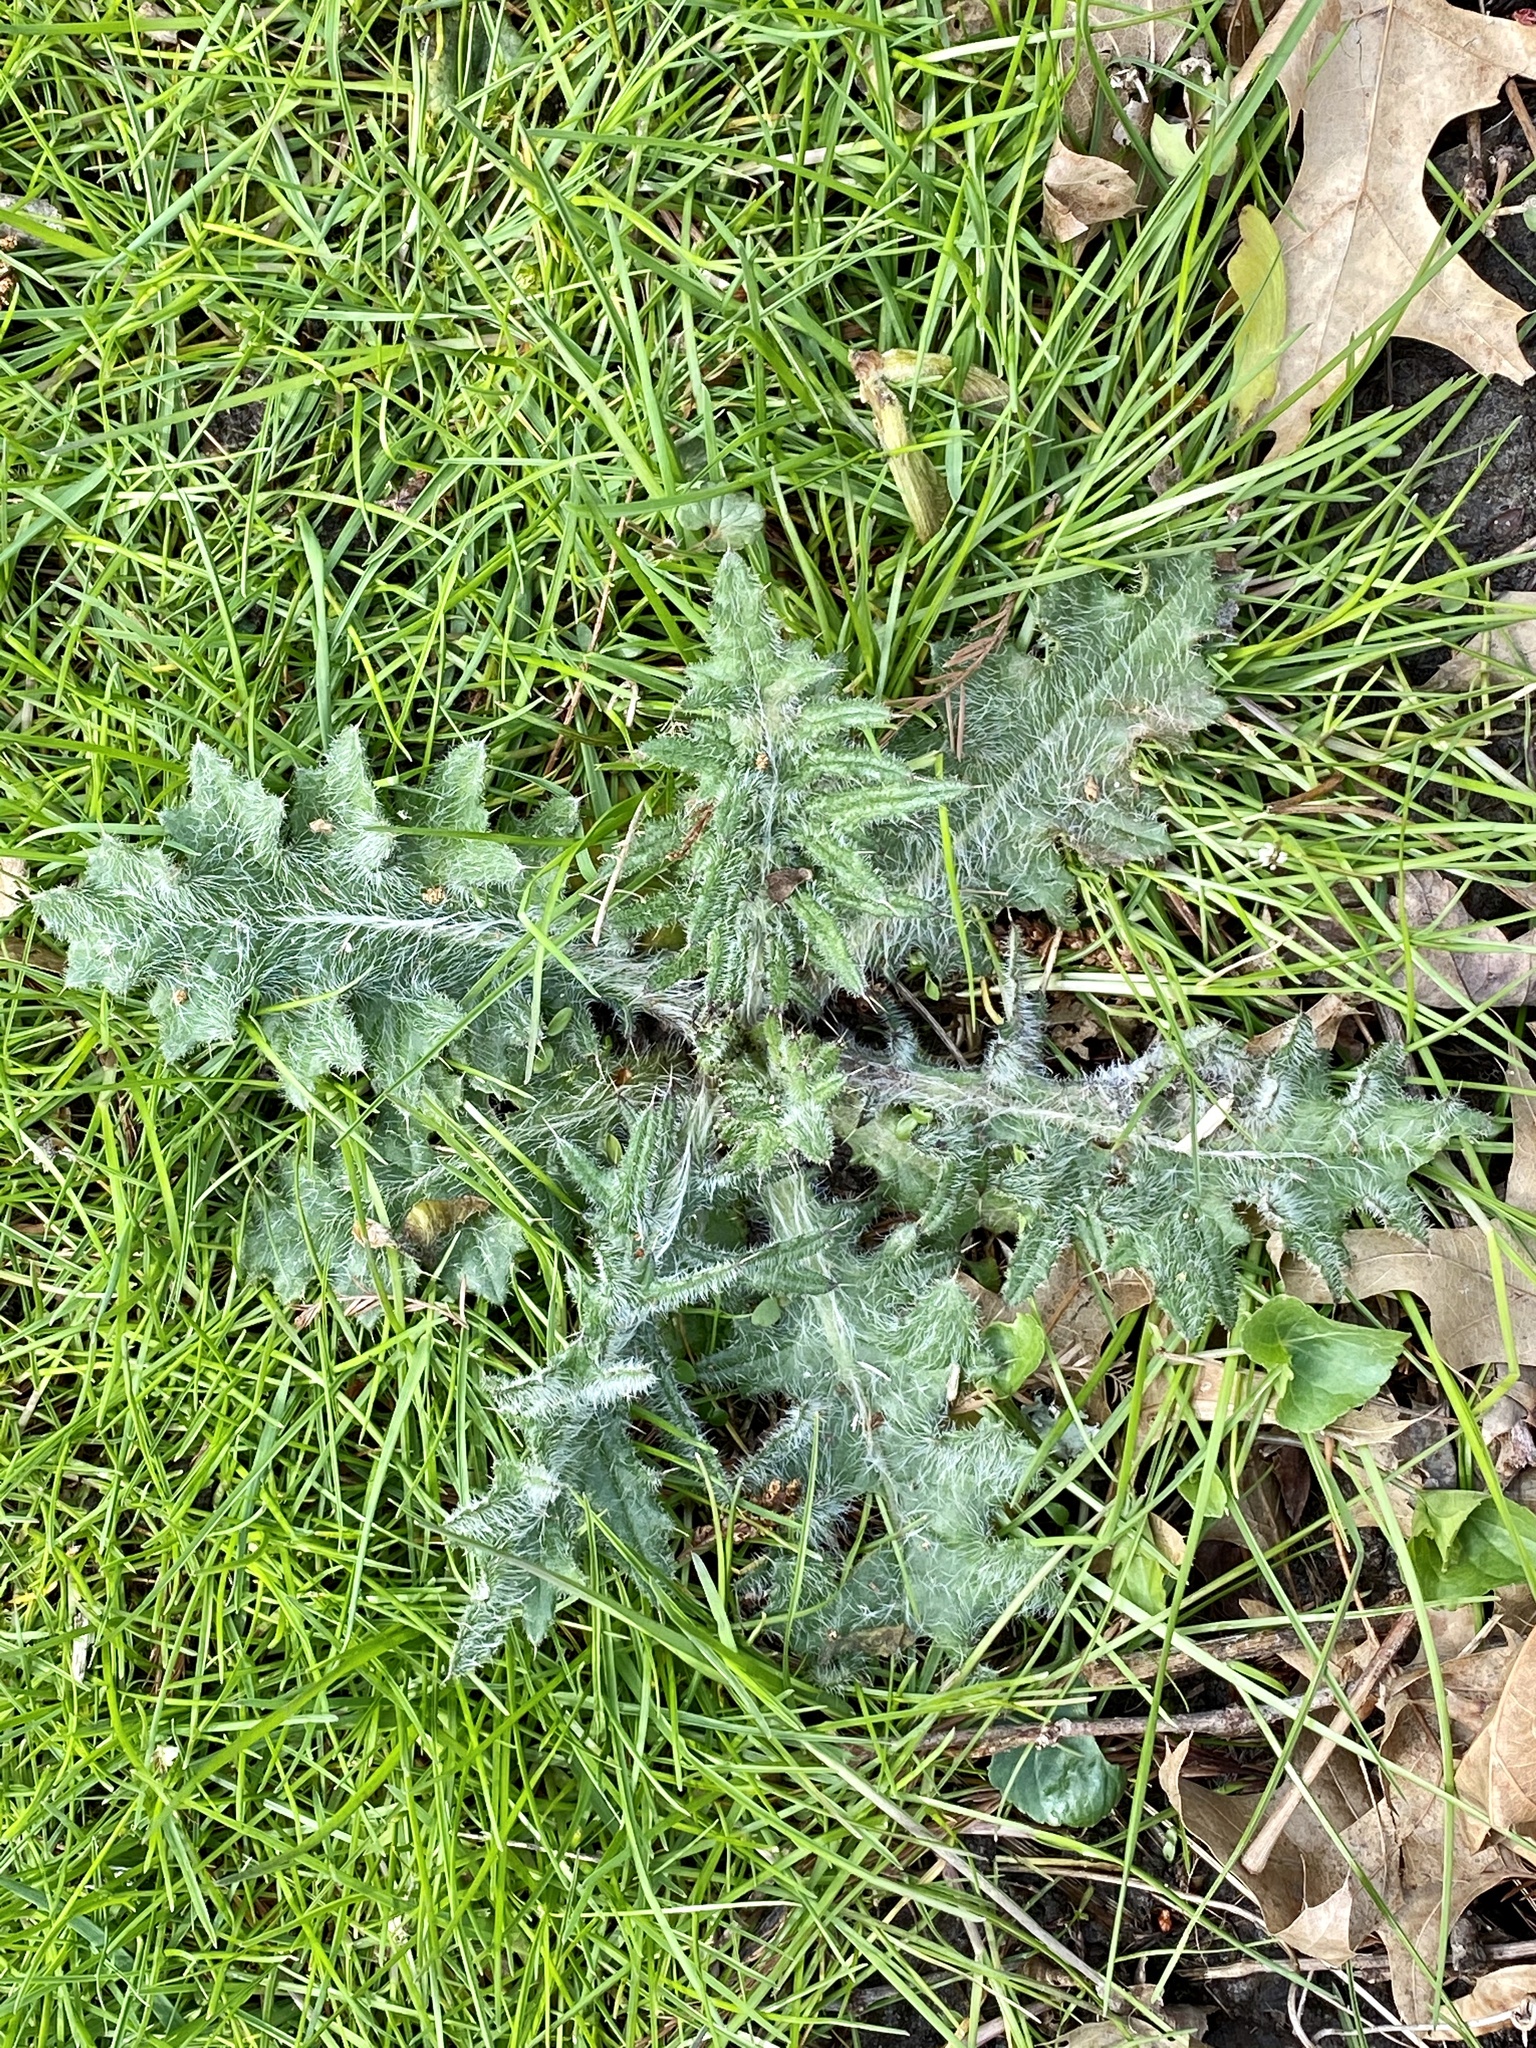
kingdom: Plantae
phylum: Tracheophyta
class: Magnoliopsida
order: Asterales
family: Asteraceae
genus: Cirsium
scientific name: Cirsium vulgare
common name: Bull thistle
